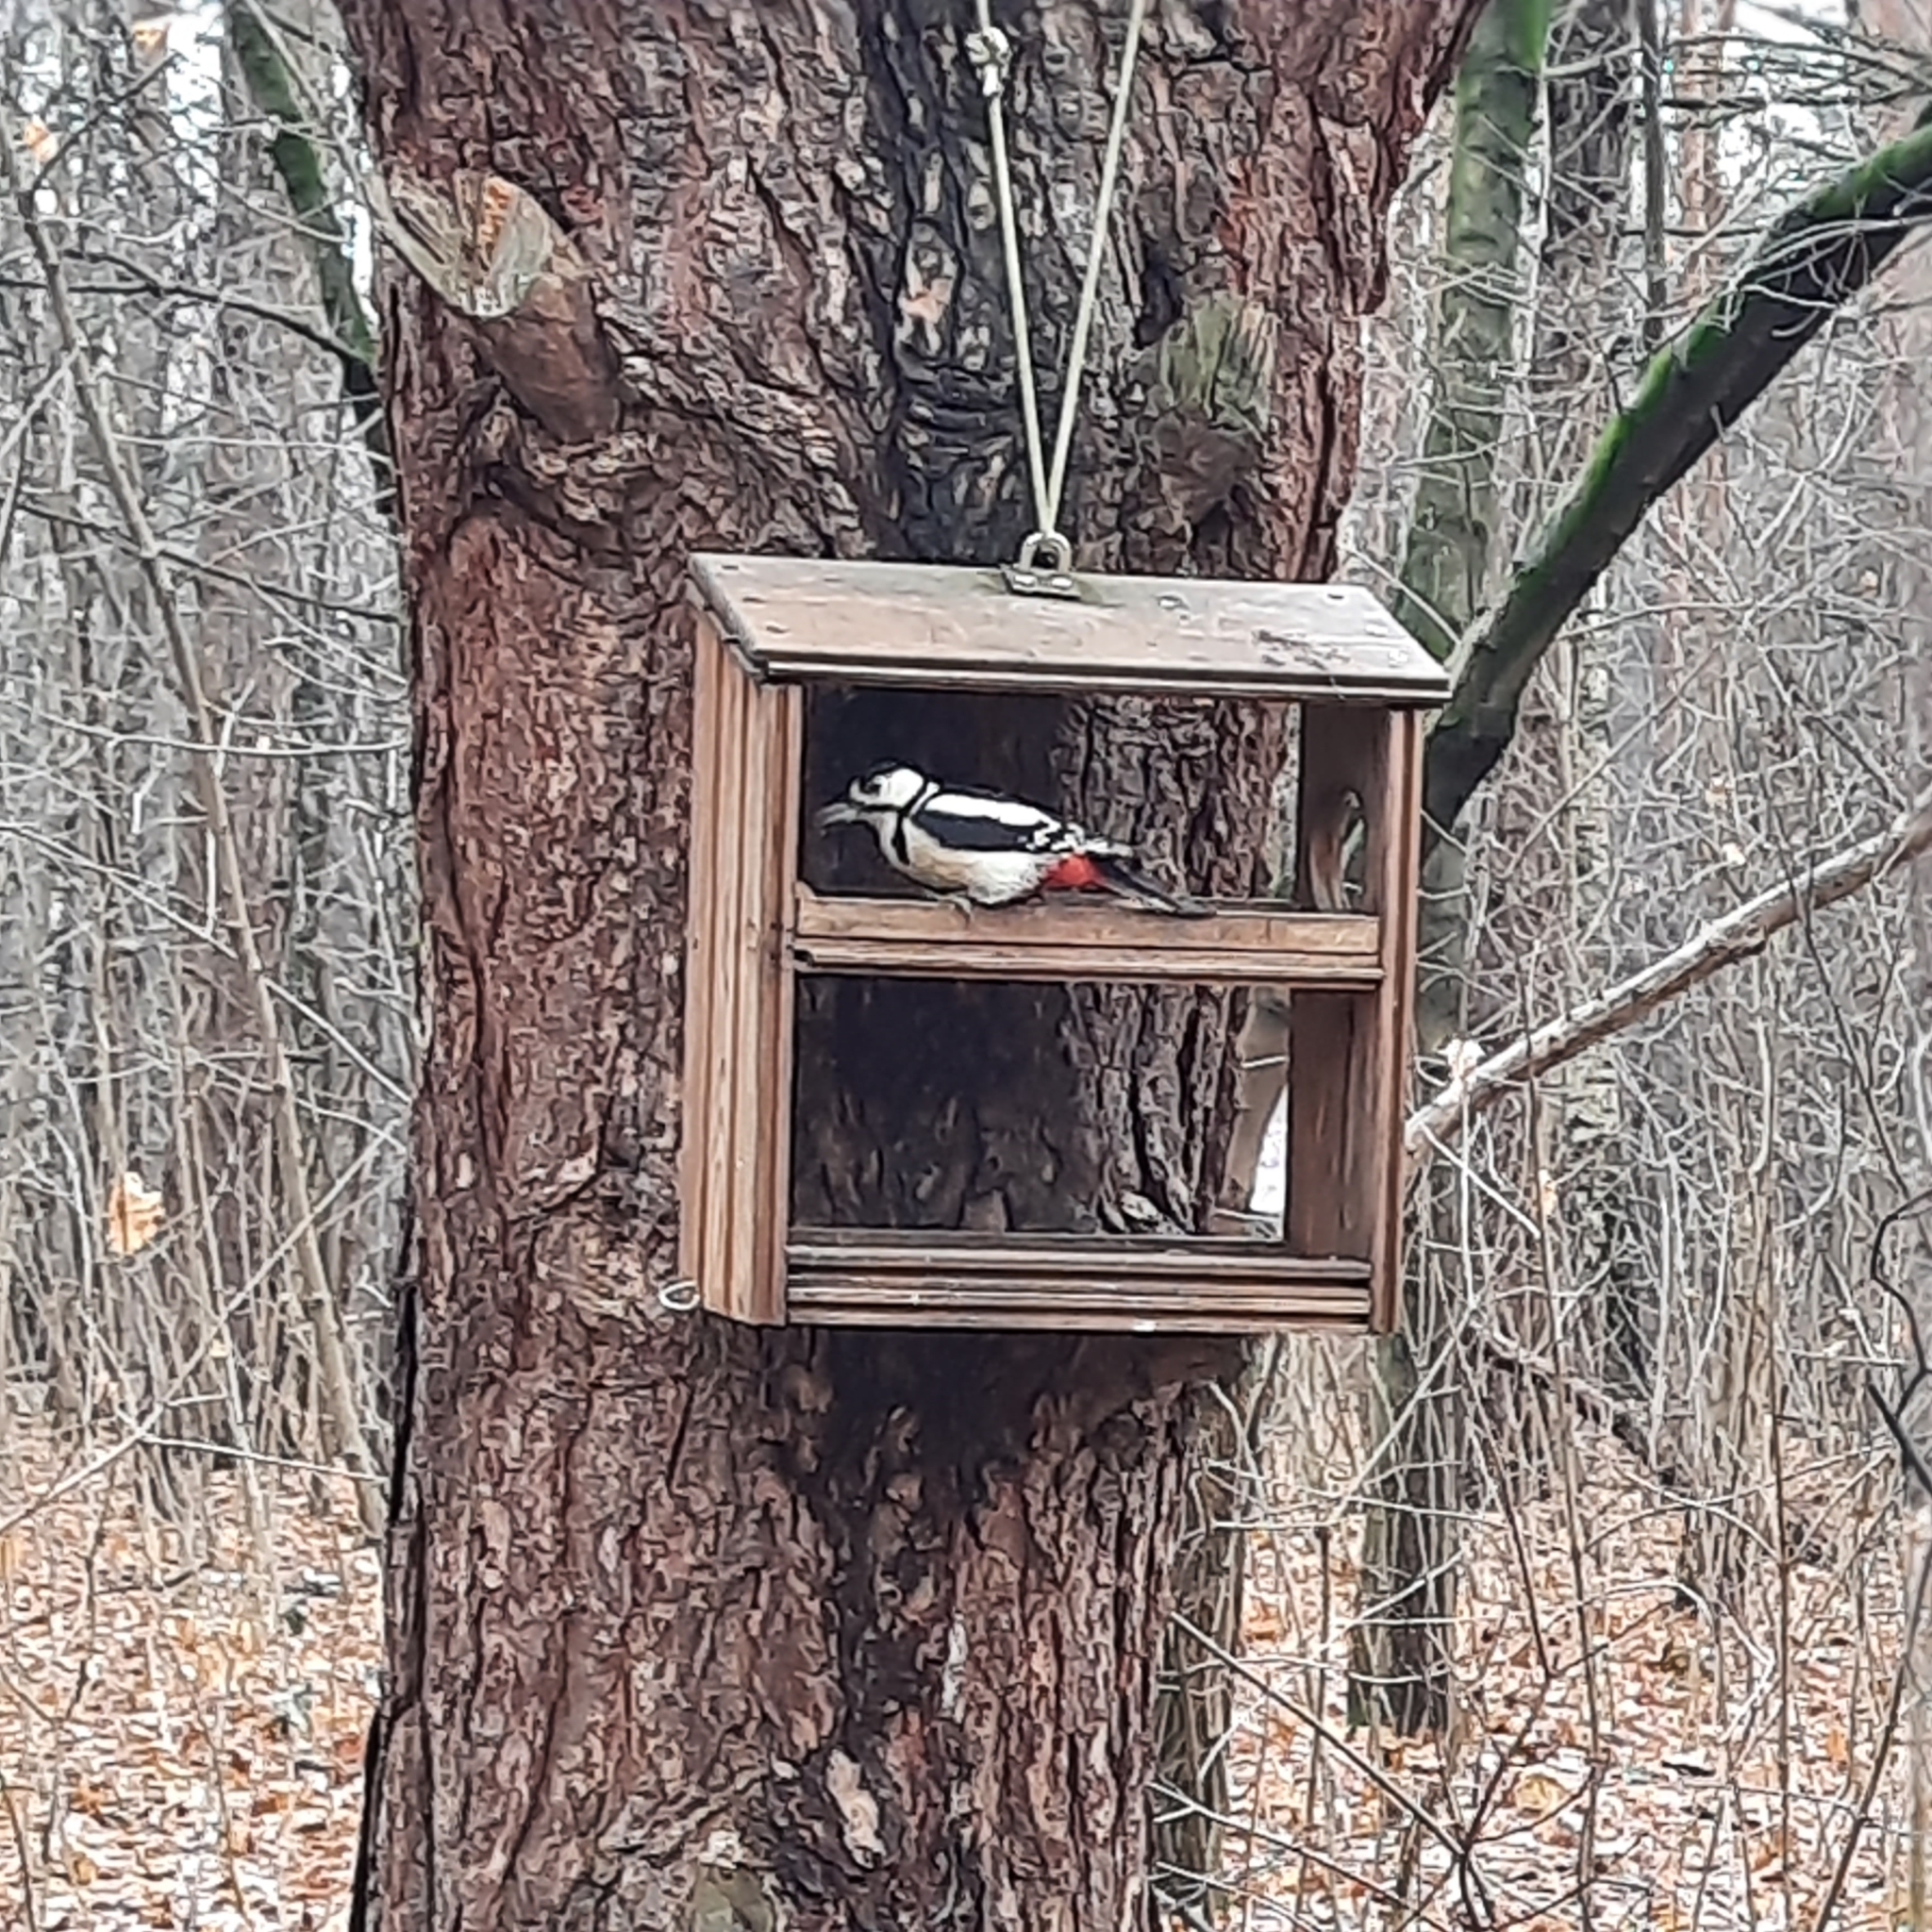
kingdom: Animalia
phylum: Chordata
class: Aves
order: Piciformes
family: Picidae
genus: Dendrocopos
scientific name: Dendrocopos major
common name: Great spotted woodpecker
